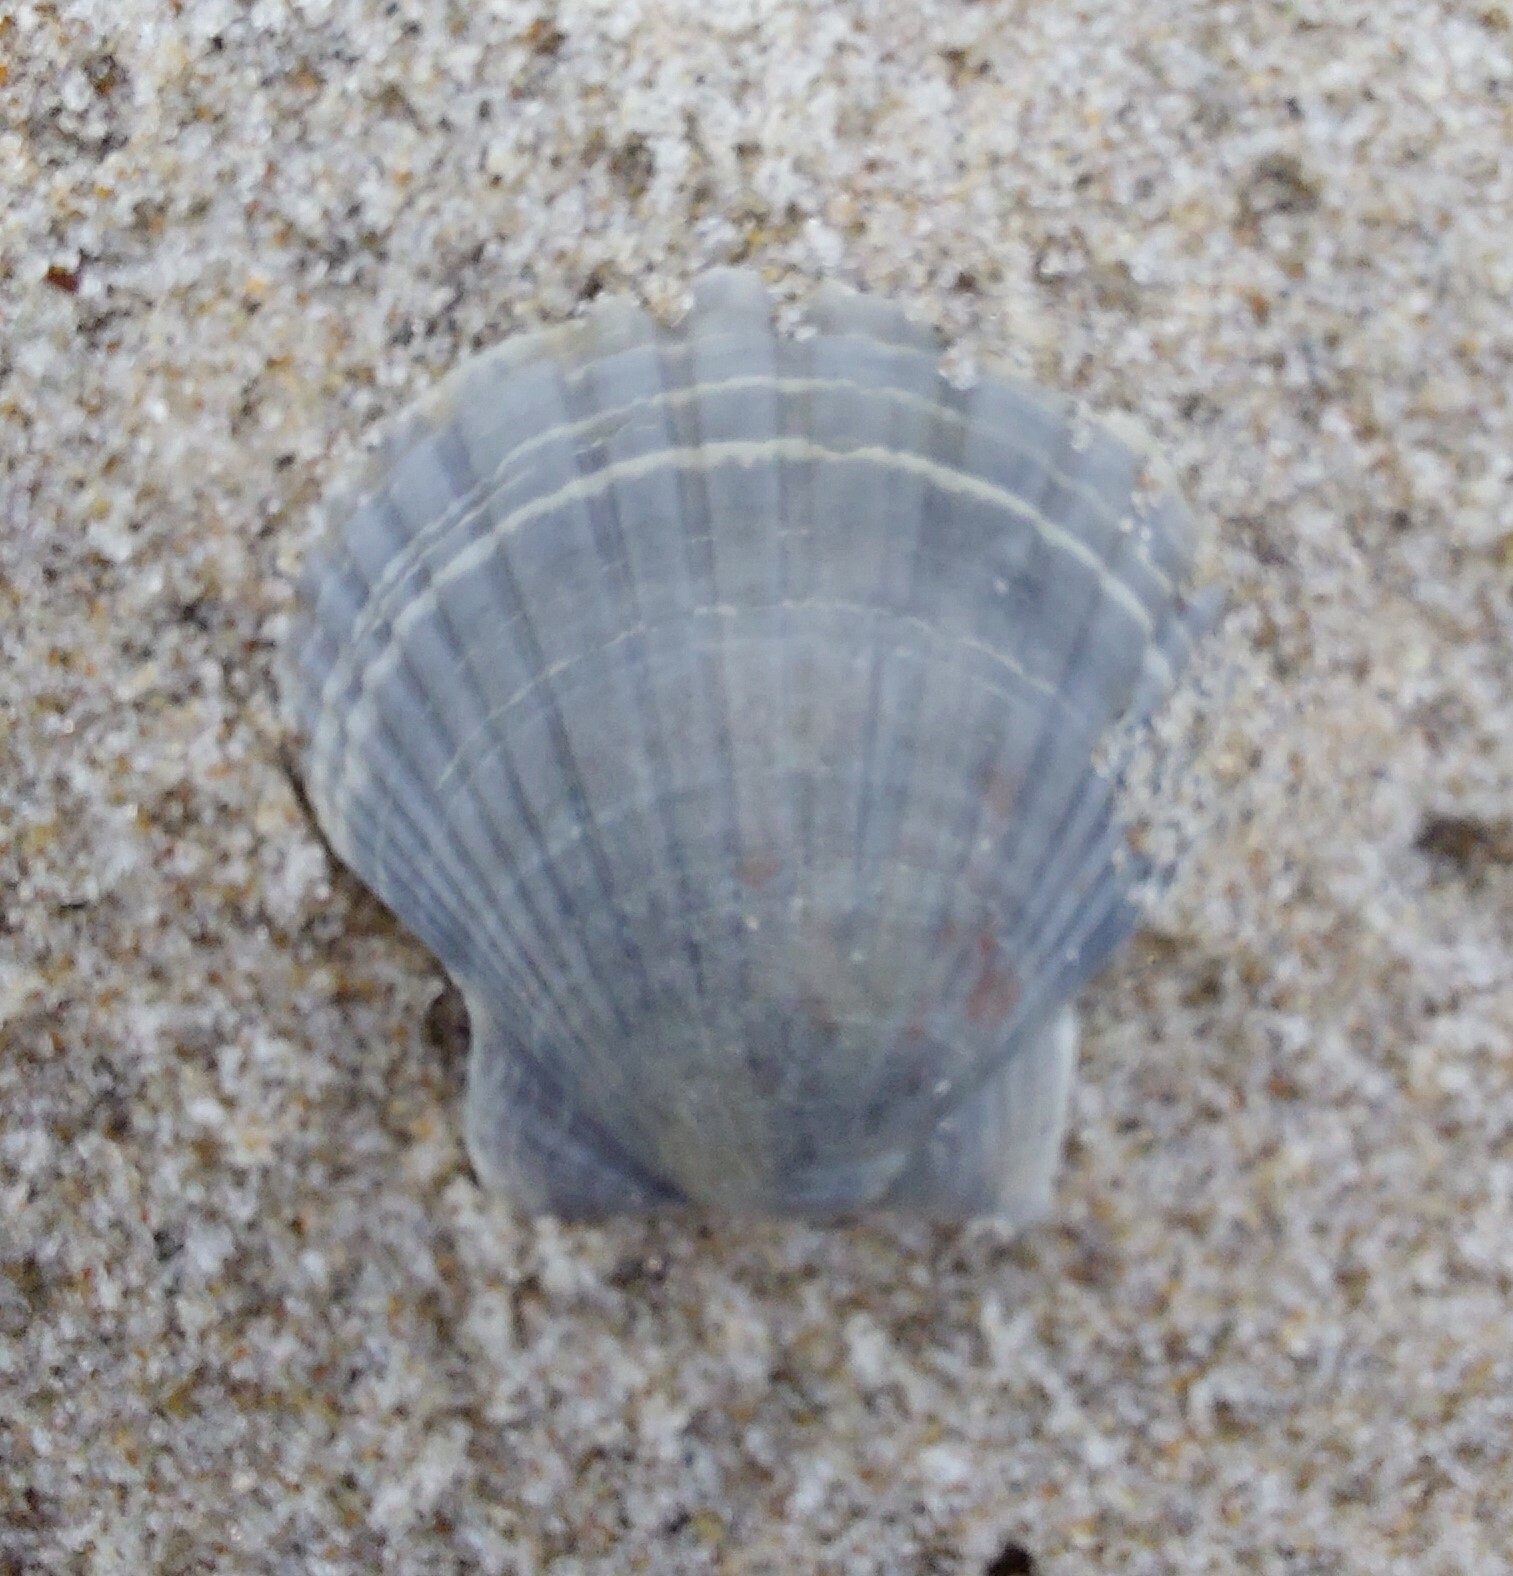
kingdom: Animalia
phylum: Mollusca
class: Bivalvia
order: Pectinida
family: Pectinidae
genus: Pecten
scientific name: Pecten novaezelandiae
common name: New zealand scallop
